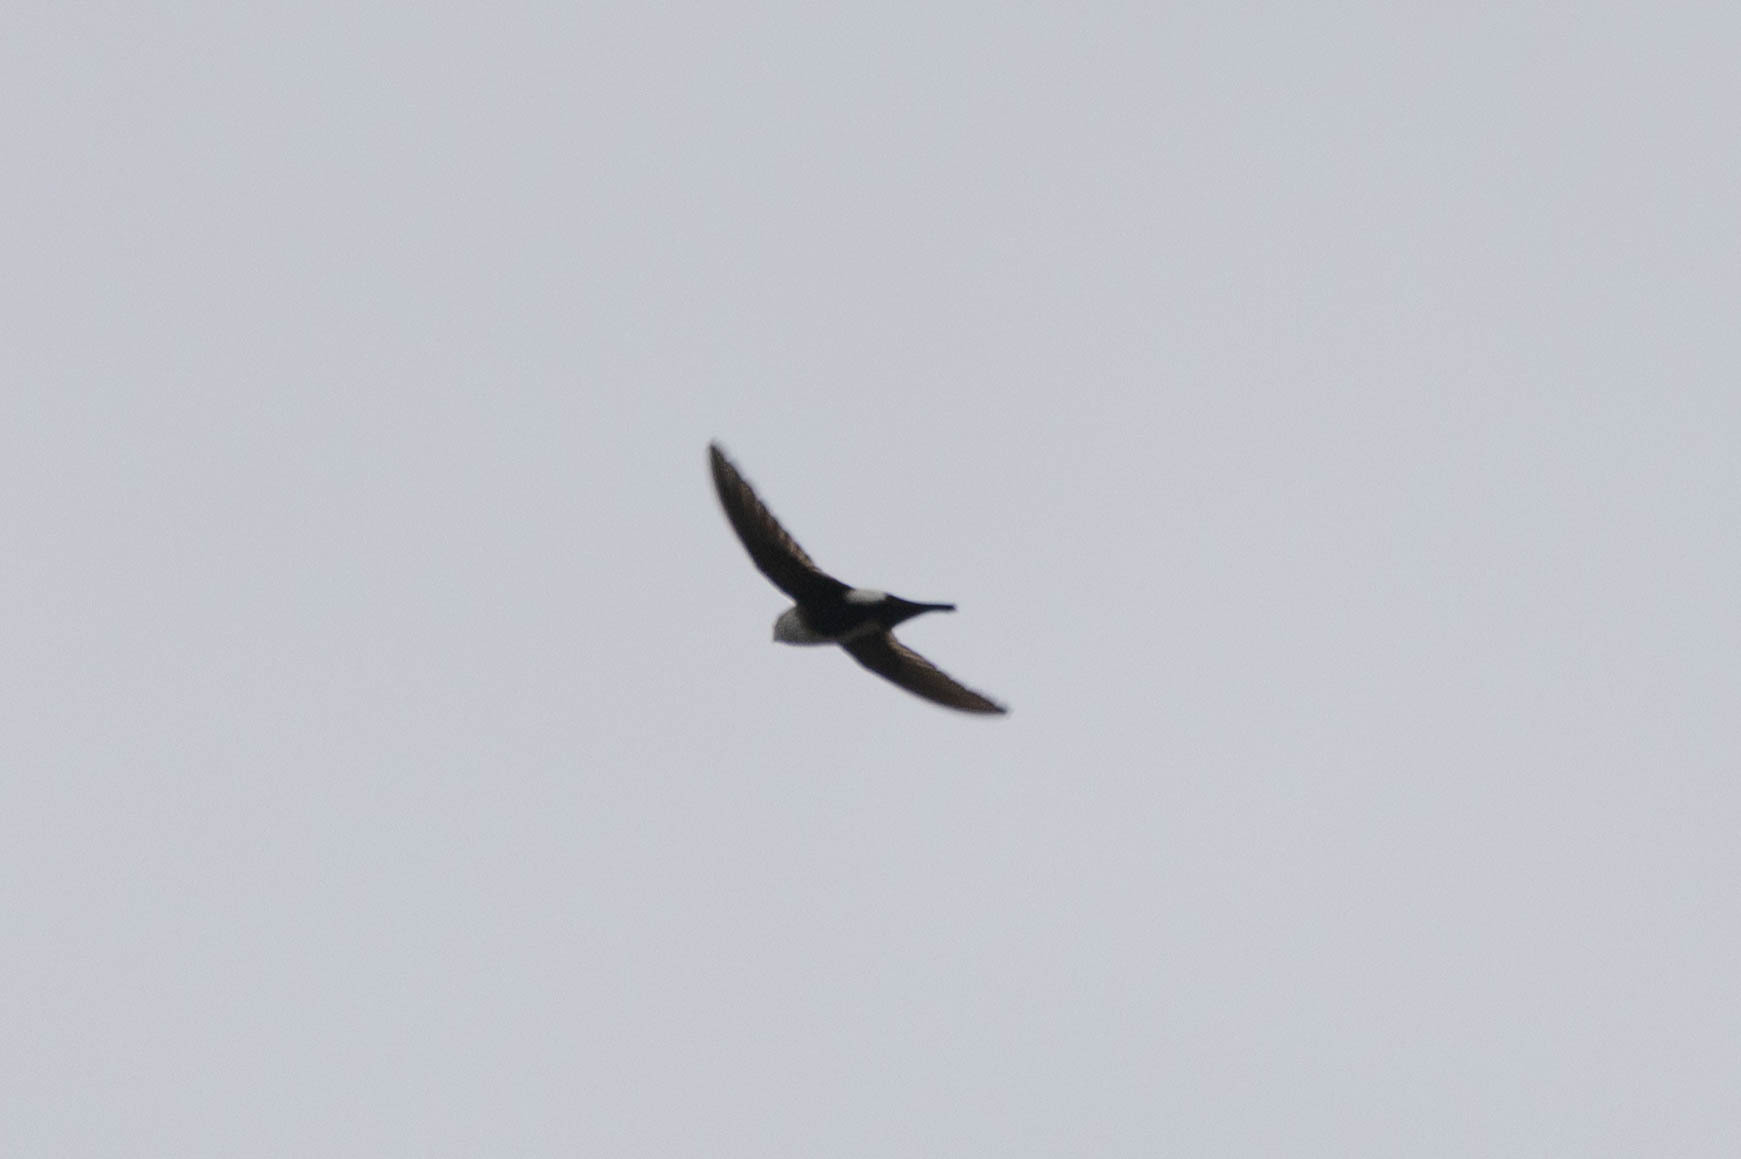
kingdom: Animalia
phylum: Chordata
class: Aves
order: Apodiformes
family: Apodidae
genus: Aeronautes
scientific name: Aeronautes saxatalis
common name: White-throated swift
